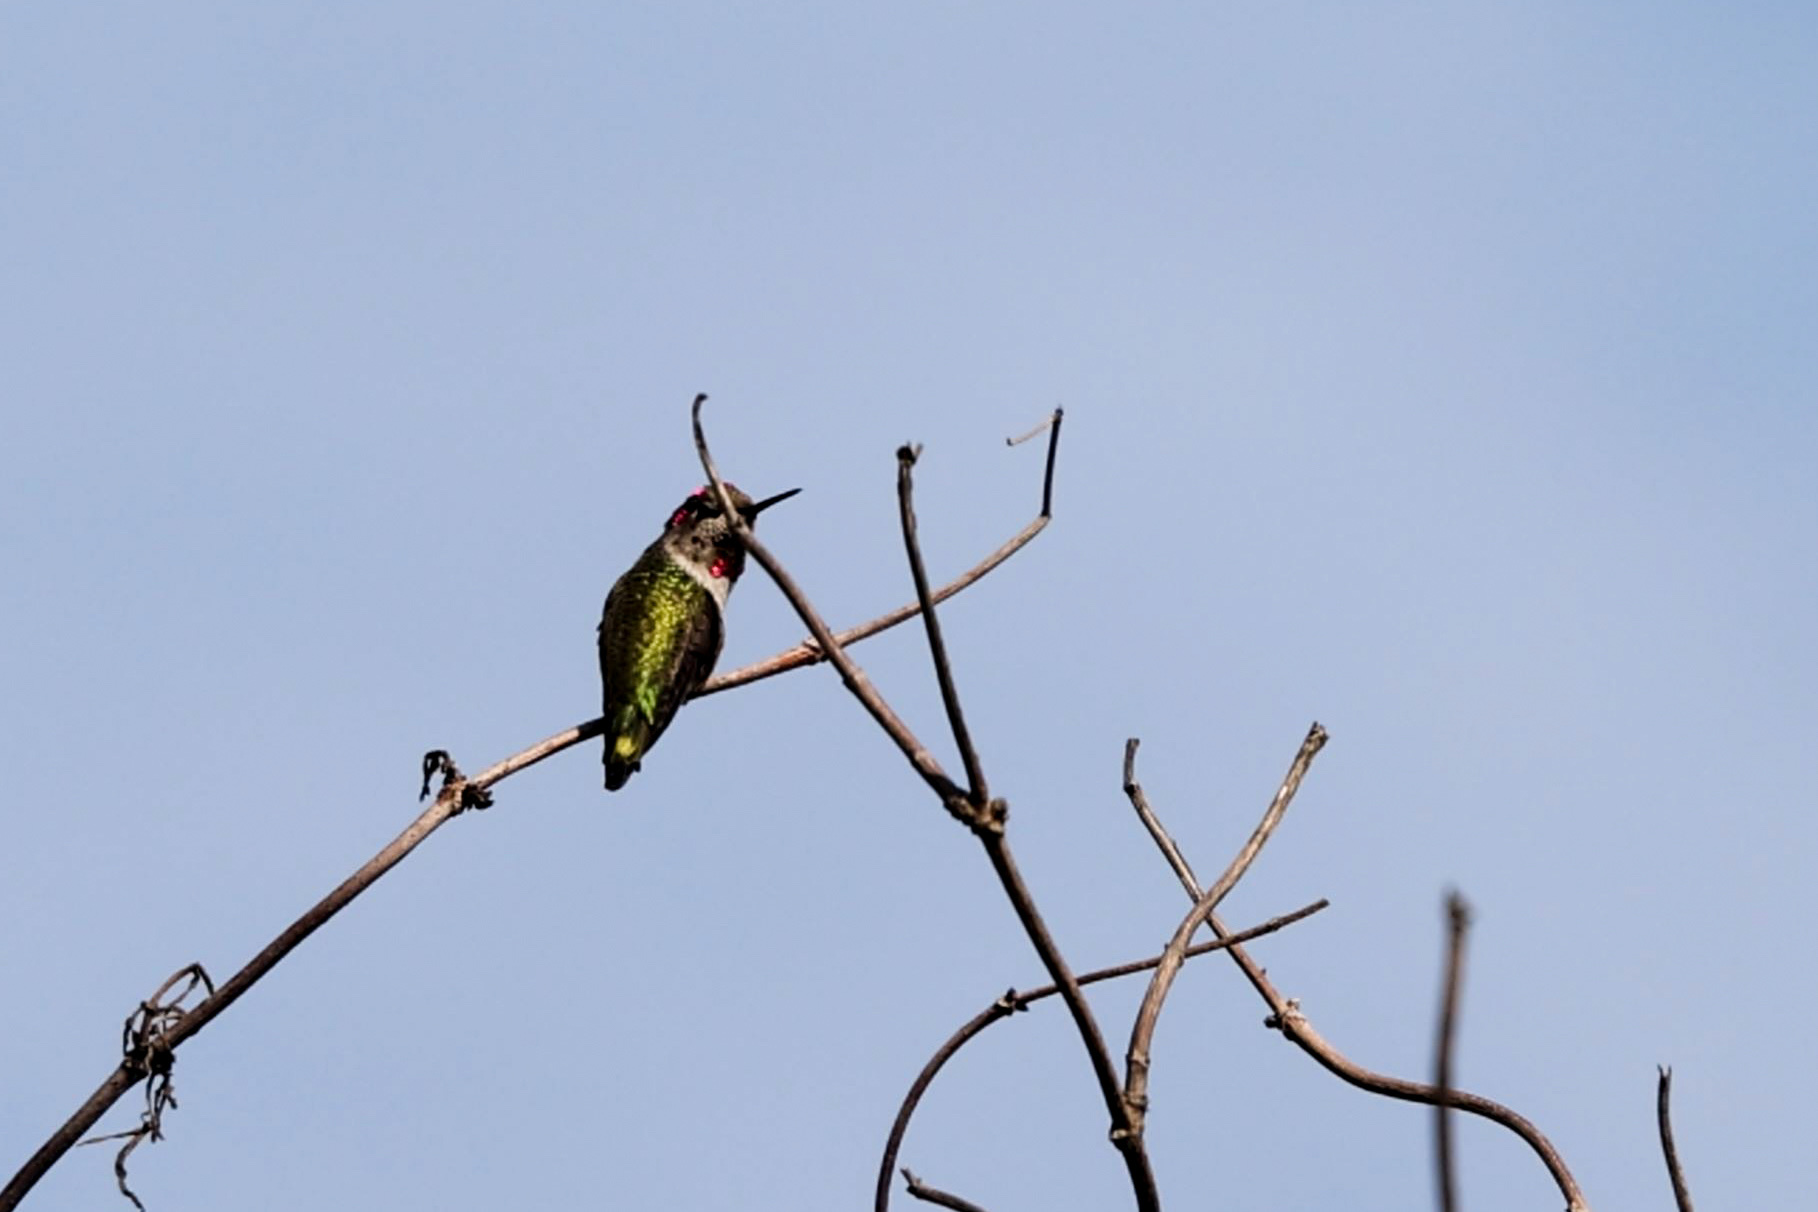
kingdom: Animalia
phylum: Chordata
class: Aves
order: Apodiformes
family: Trochilidae
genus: Calypte
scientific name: Calypte anna
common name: Anna's hummingbird
